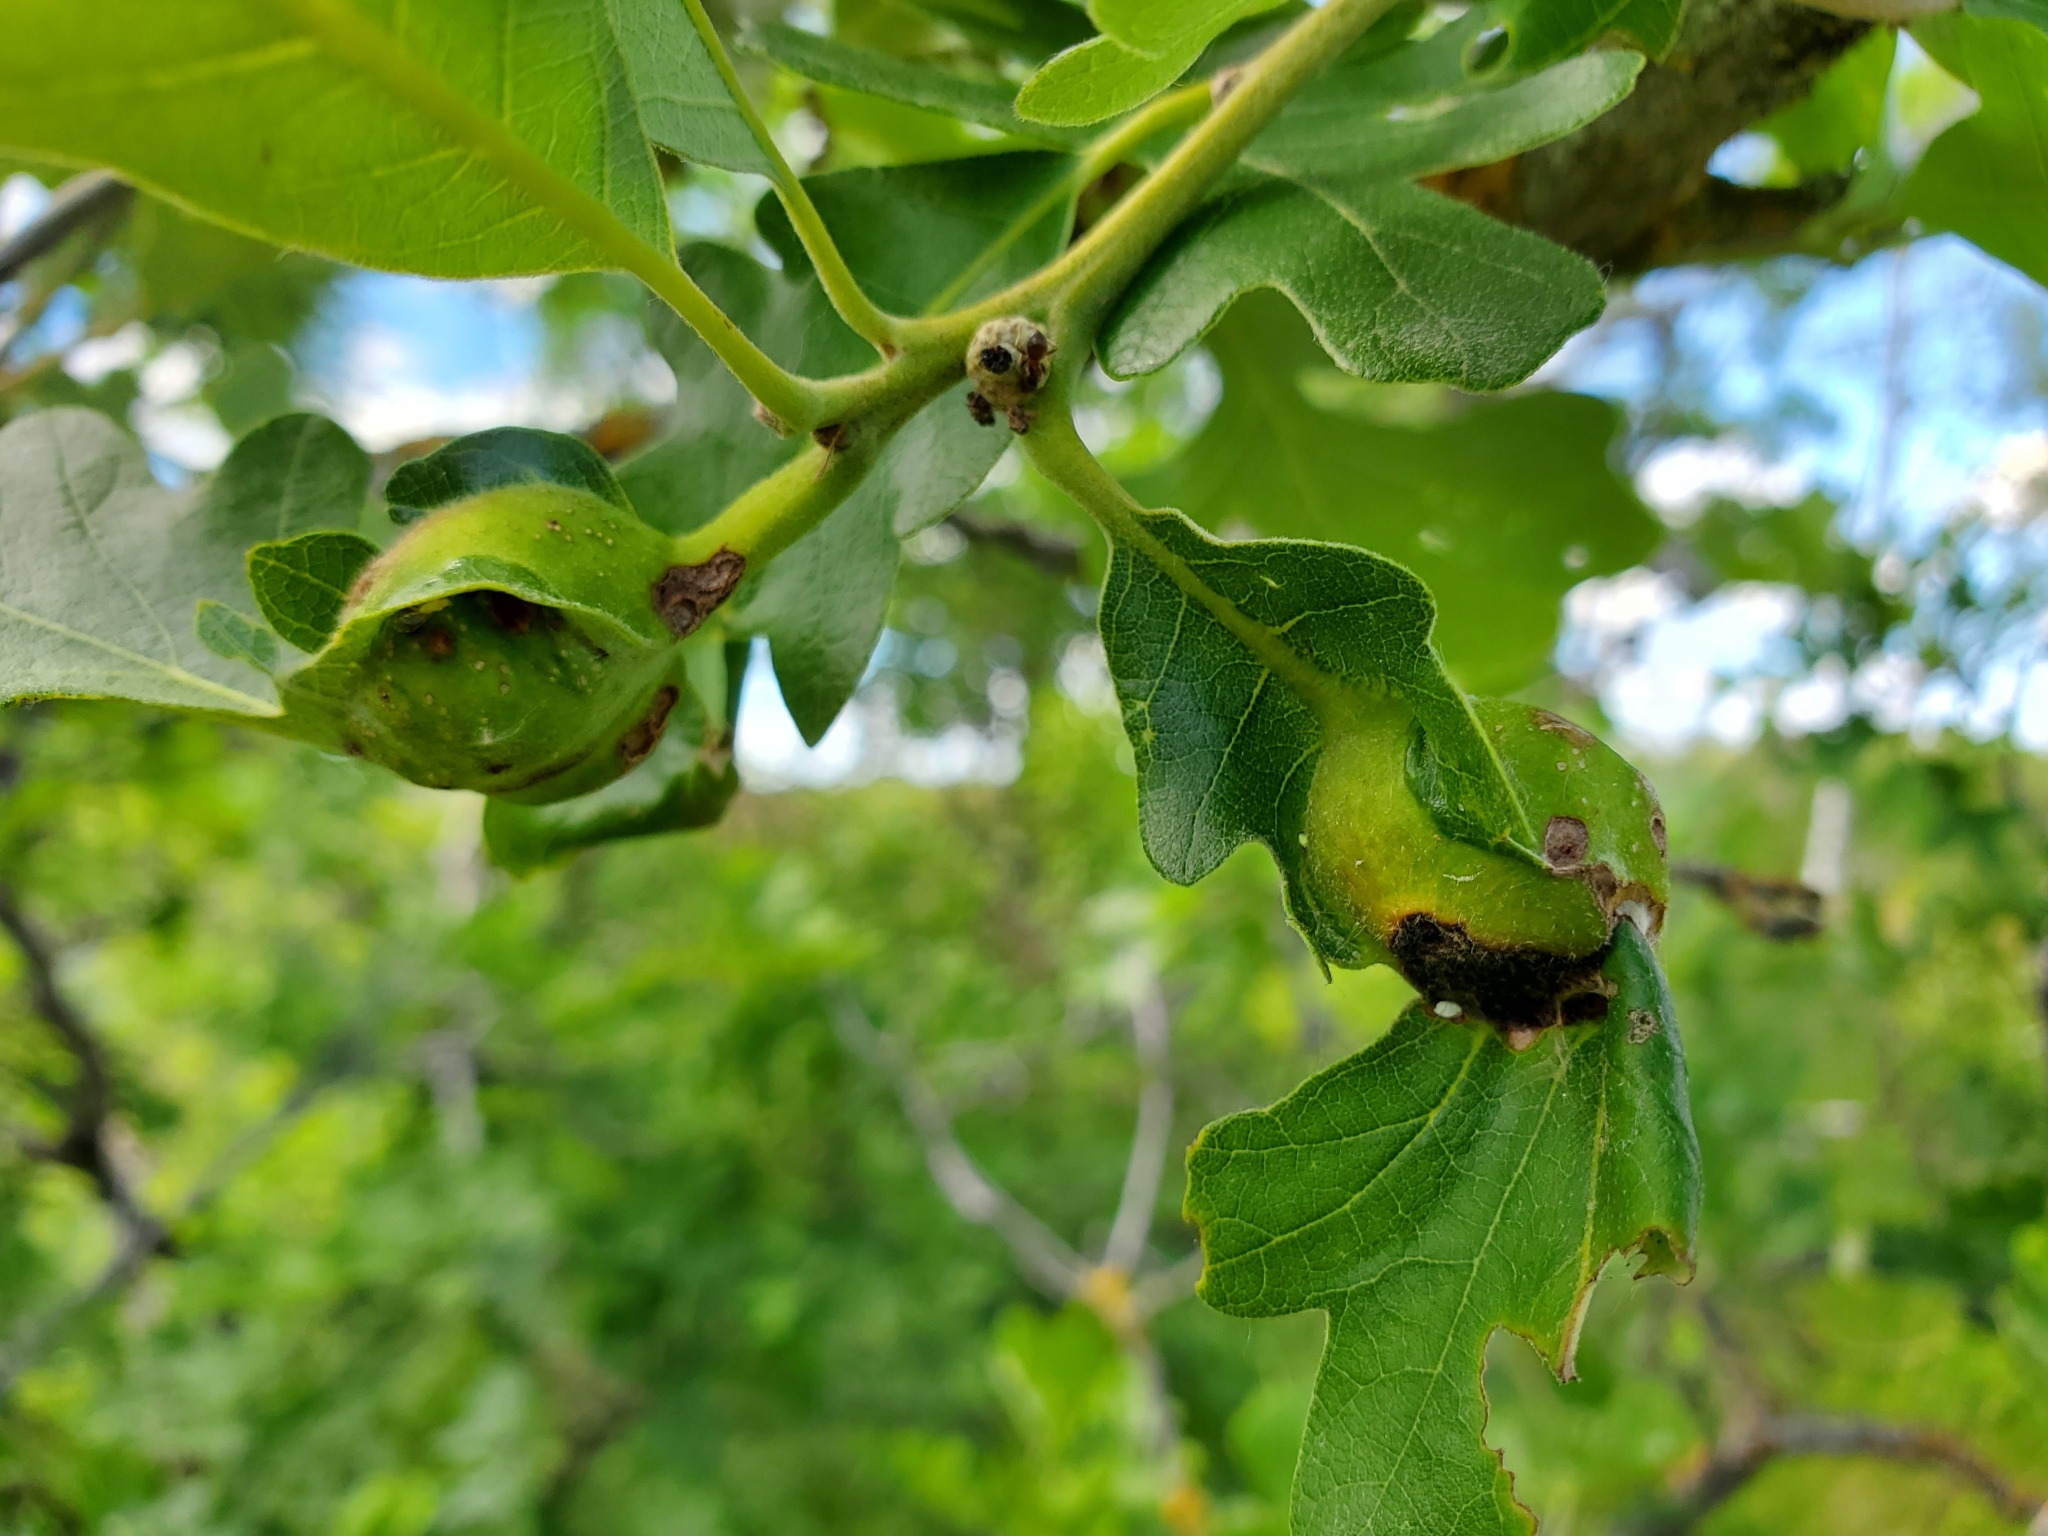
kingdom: Animalia
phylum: Arthropoda
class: Insecta
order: Hymenoptera
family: Cynipidae
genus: Andricus
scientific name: Andricus
